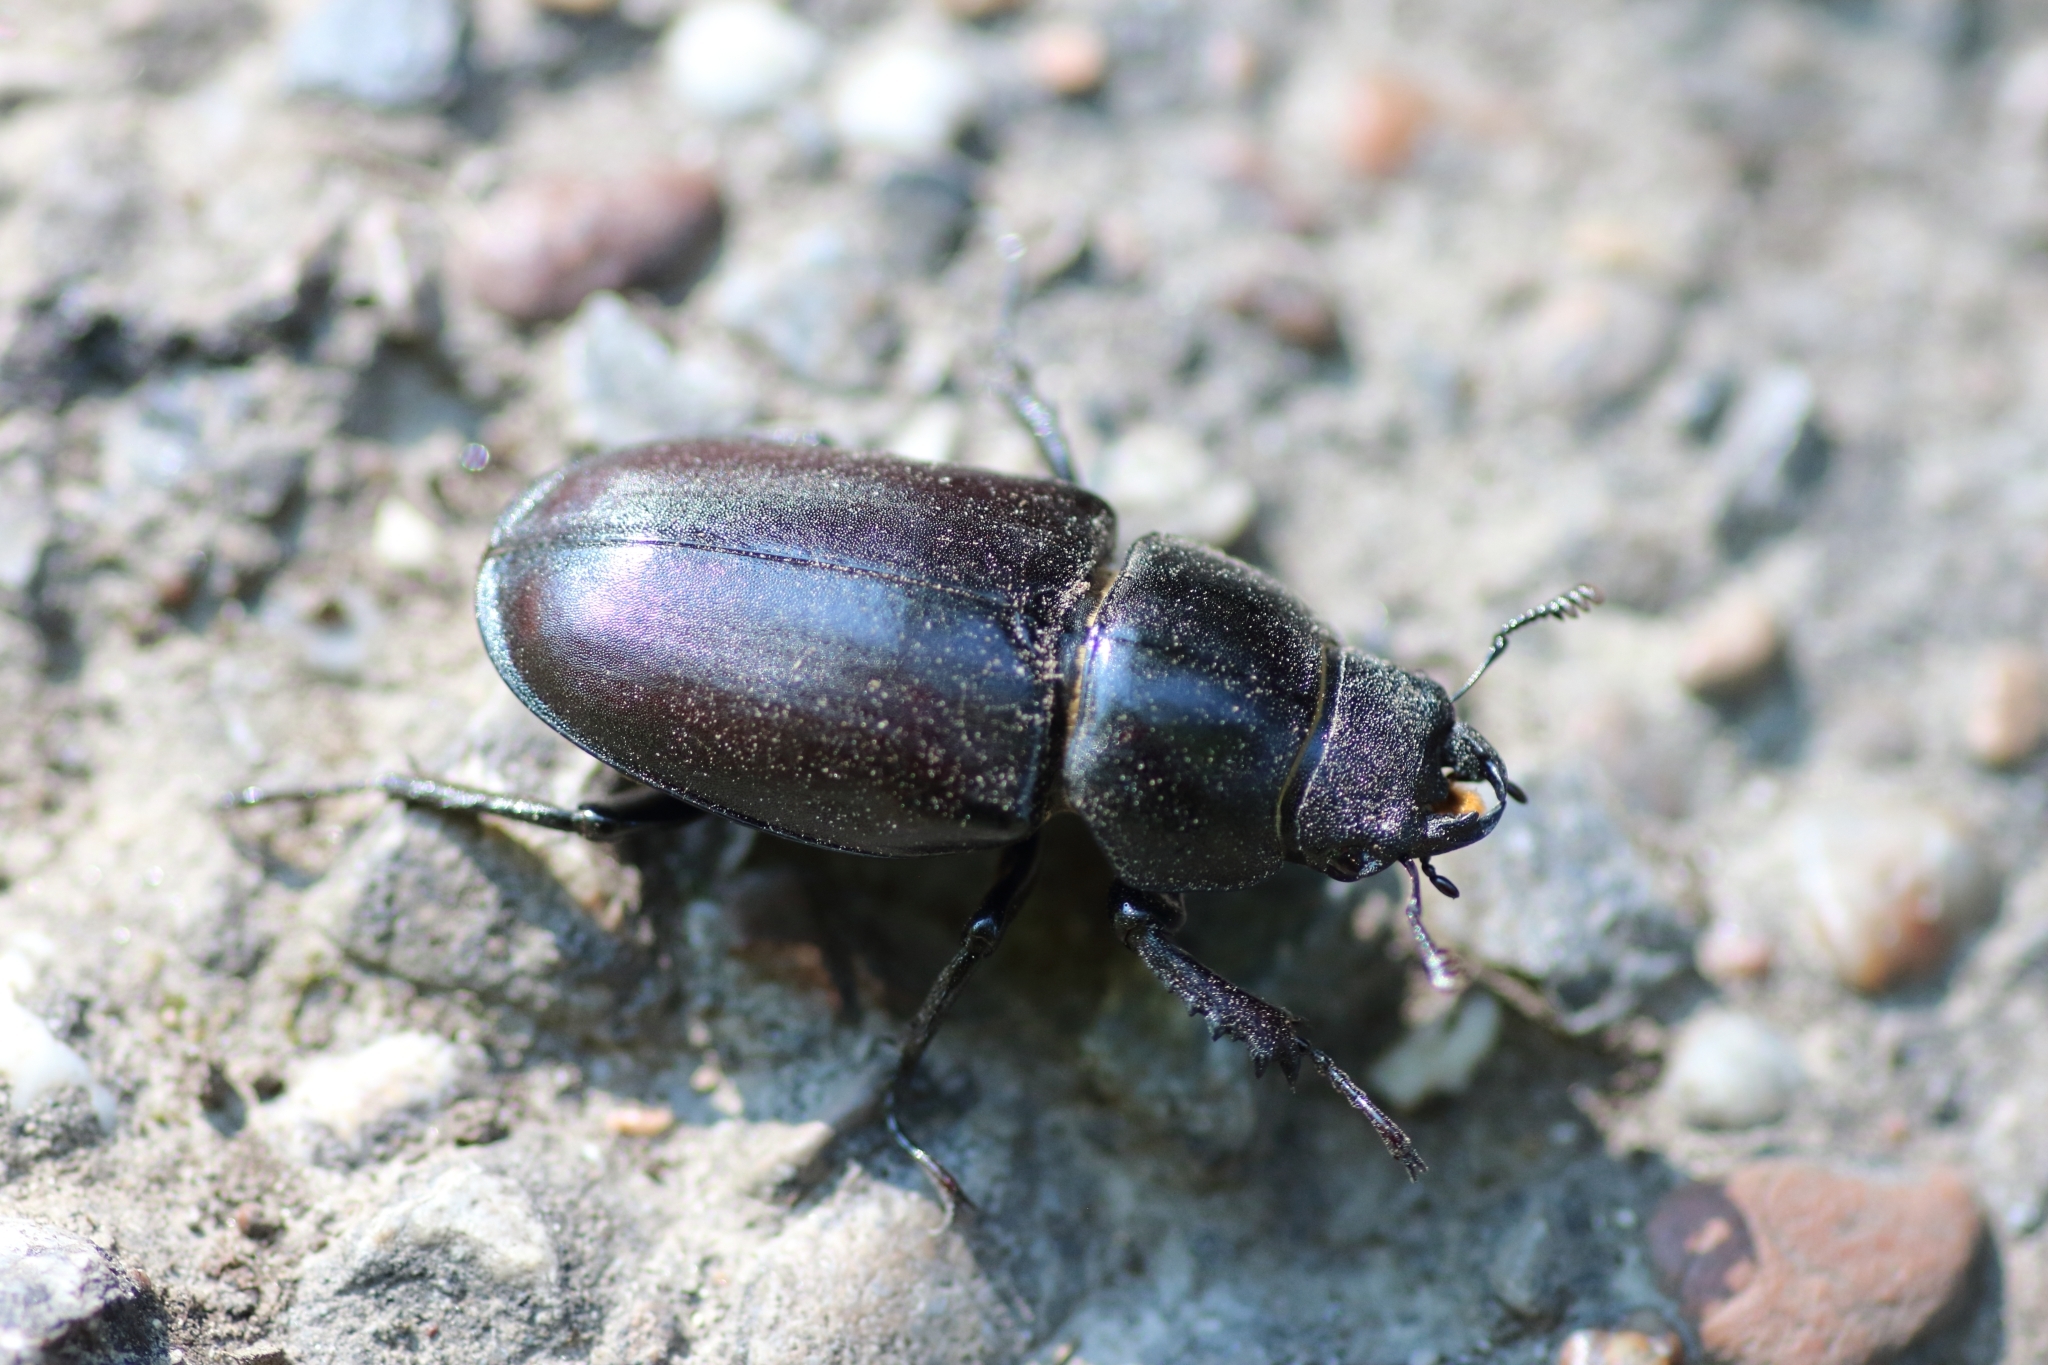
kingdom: Animalia
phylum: Arthropoda
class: Insecta
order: Coleoptera
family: Lucanidae
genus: Lucanus
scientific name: Lucanus cervus
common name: Stag beetle
